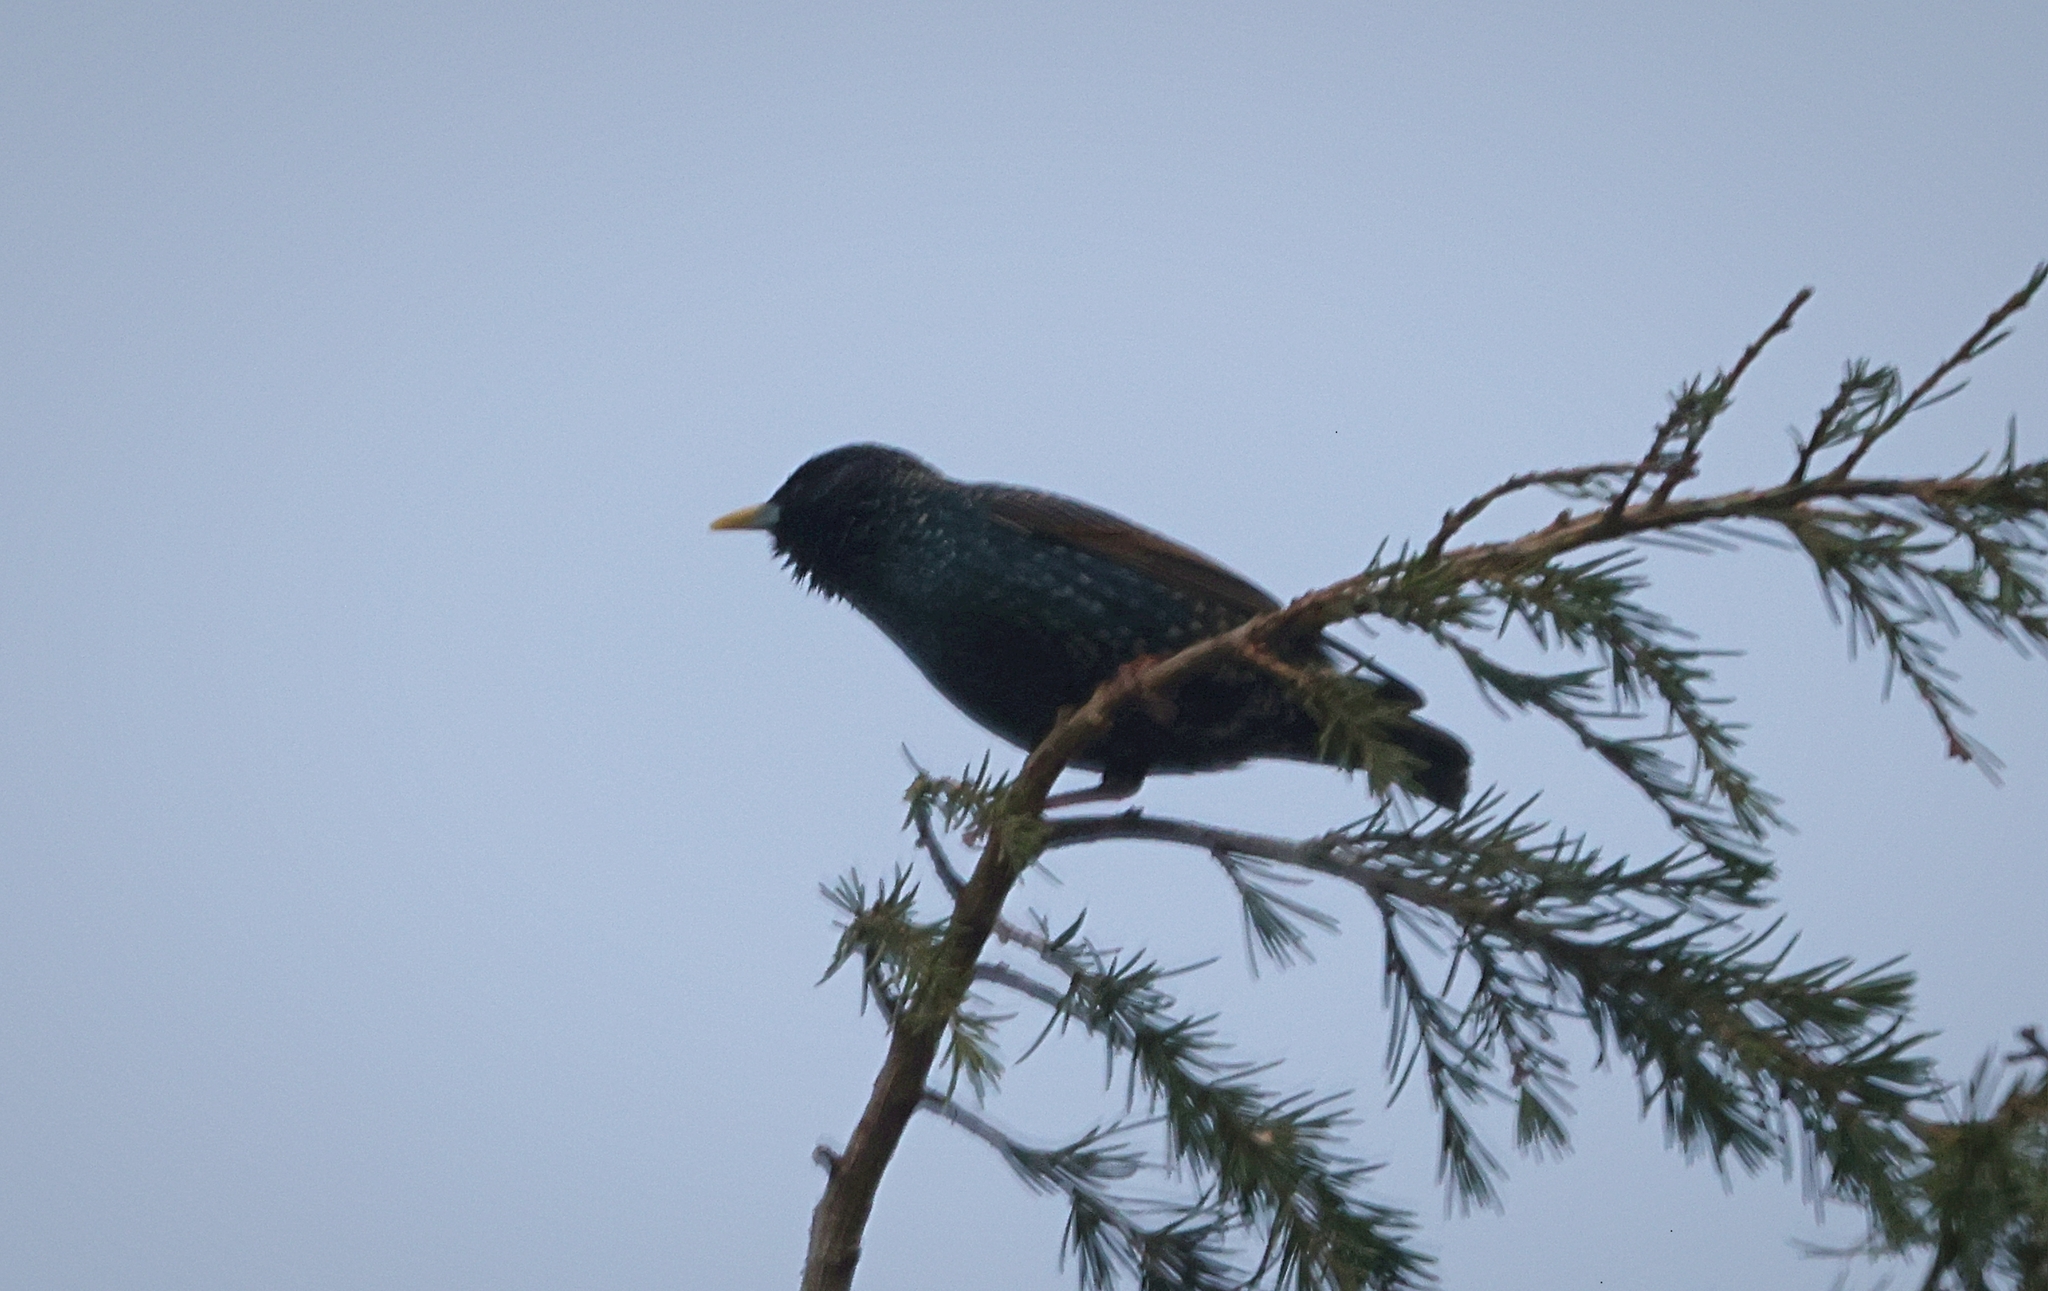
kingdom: Animalia
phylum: Chordata
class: Aves
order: Passeriformes
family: Sturnidae
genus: Sturnus
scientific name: Sturnus vulgaris
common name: Common starling
